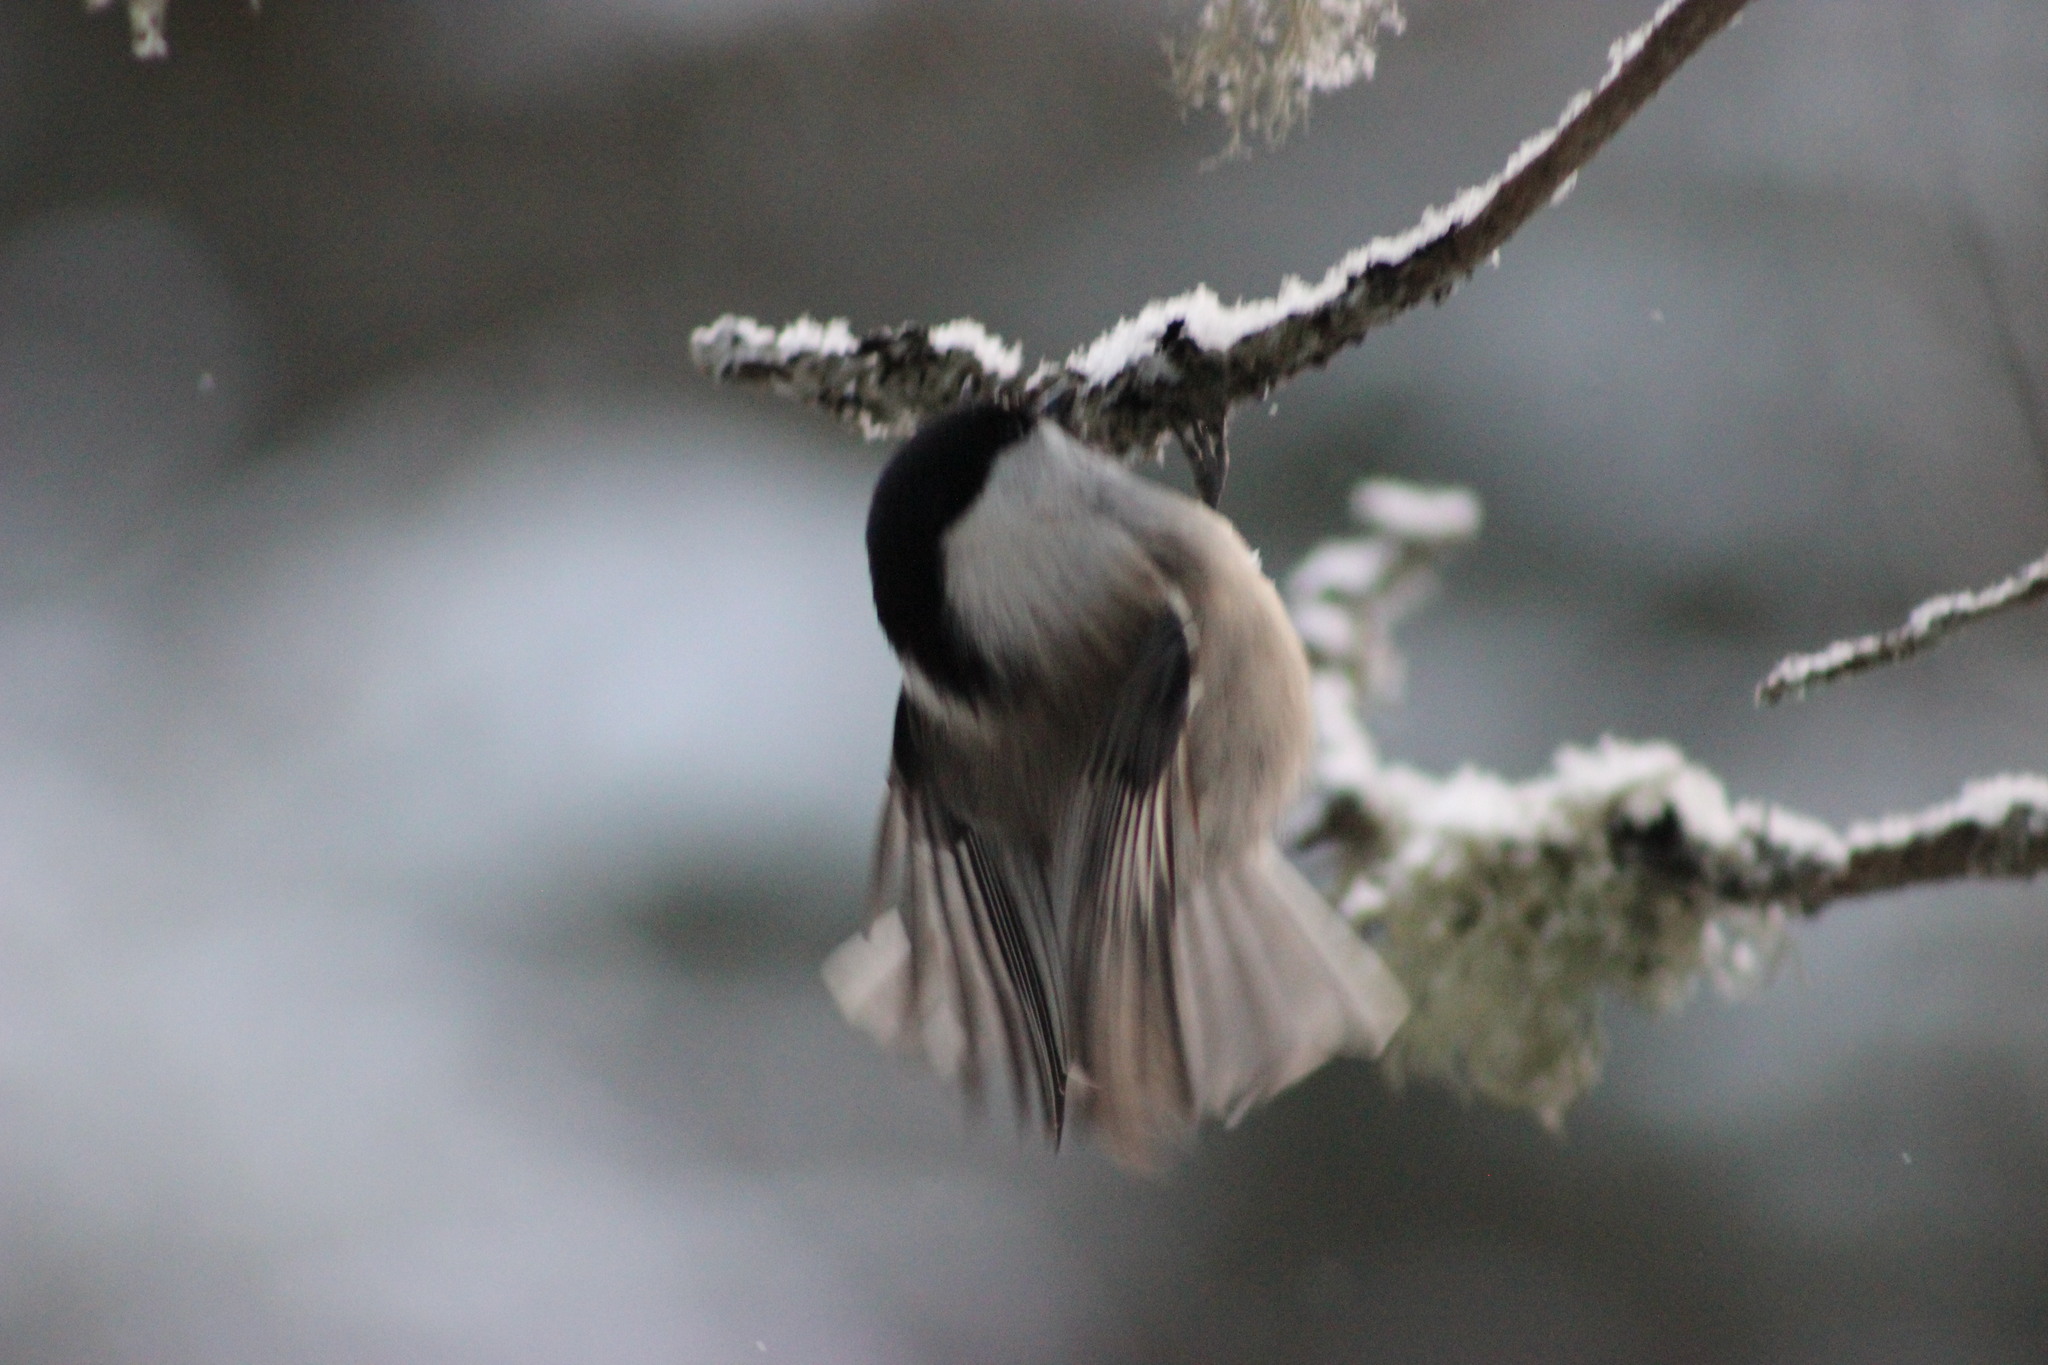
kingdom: Animalia
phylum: Chordata
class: Aves
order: Passeriformes
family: Paridae
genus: Poecile
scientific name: Poecile montanus
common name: Willow tit
